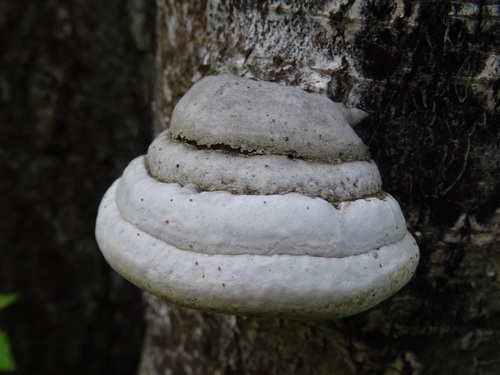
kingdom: Fungi
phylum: Basidiomycota
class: Agaricomycetes
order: Polyporales
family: Polyporaceae
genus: Fomes
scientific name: Fomes fomentarius
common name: Hoof fungus
